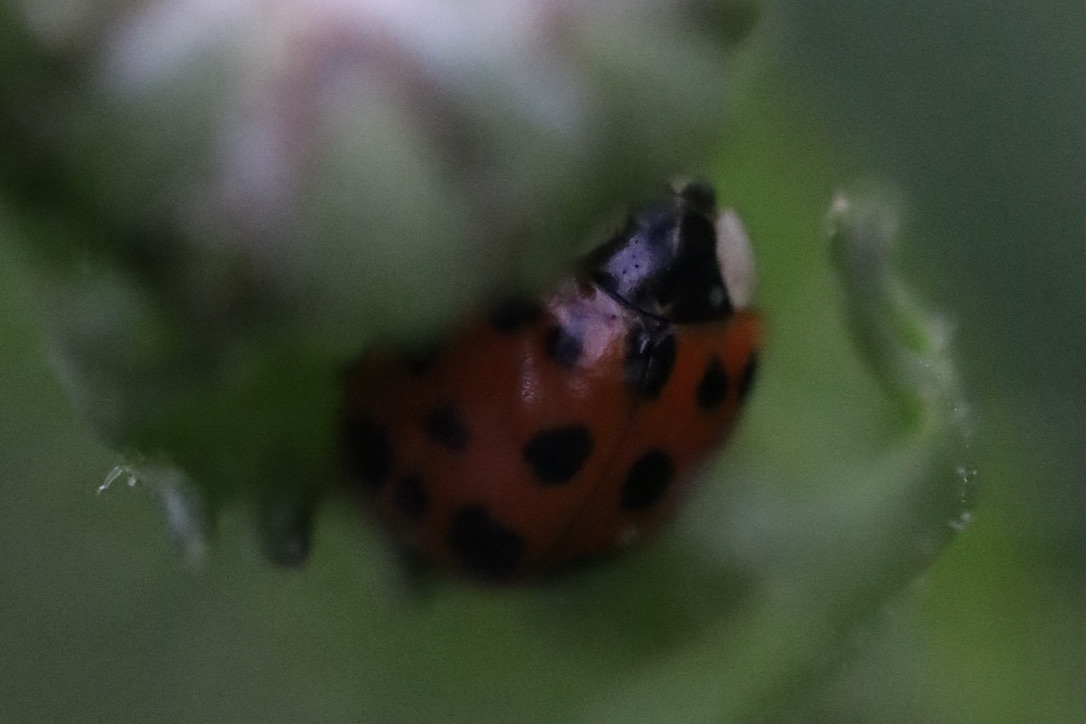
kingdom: Animalia
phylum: Arthropoda
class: Insecta
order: Coleoptera
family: Coccinellidae
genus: Harmonia
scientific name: Harmonia axyridis
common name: Harlequin ladybird
